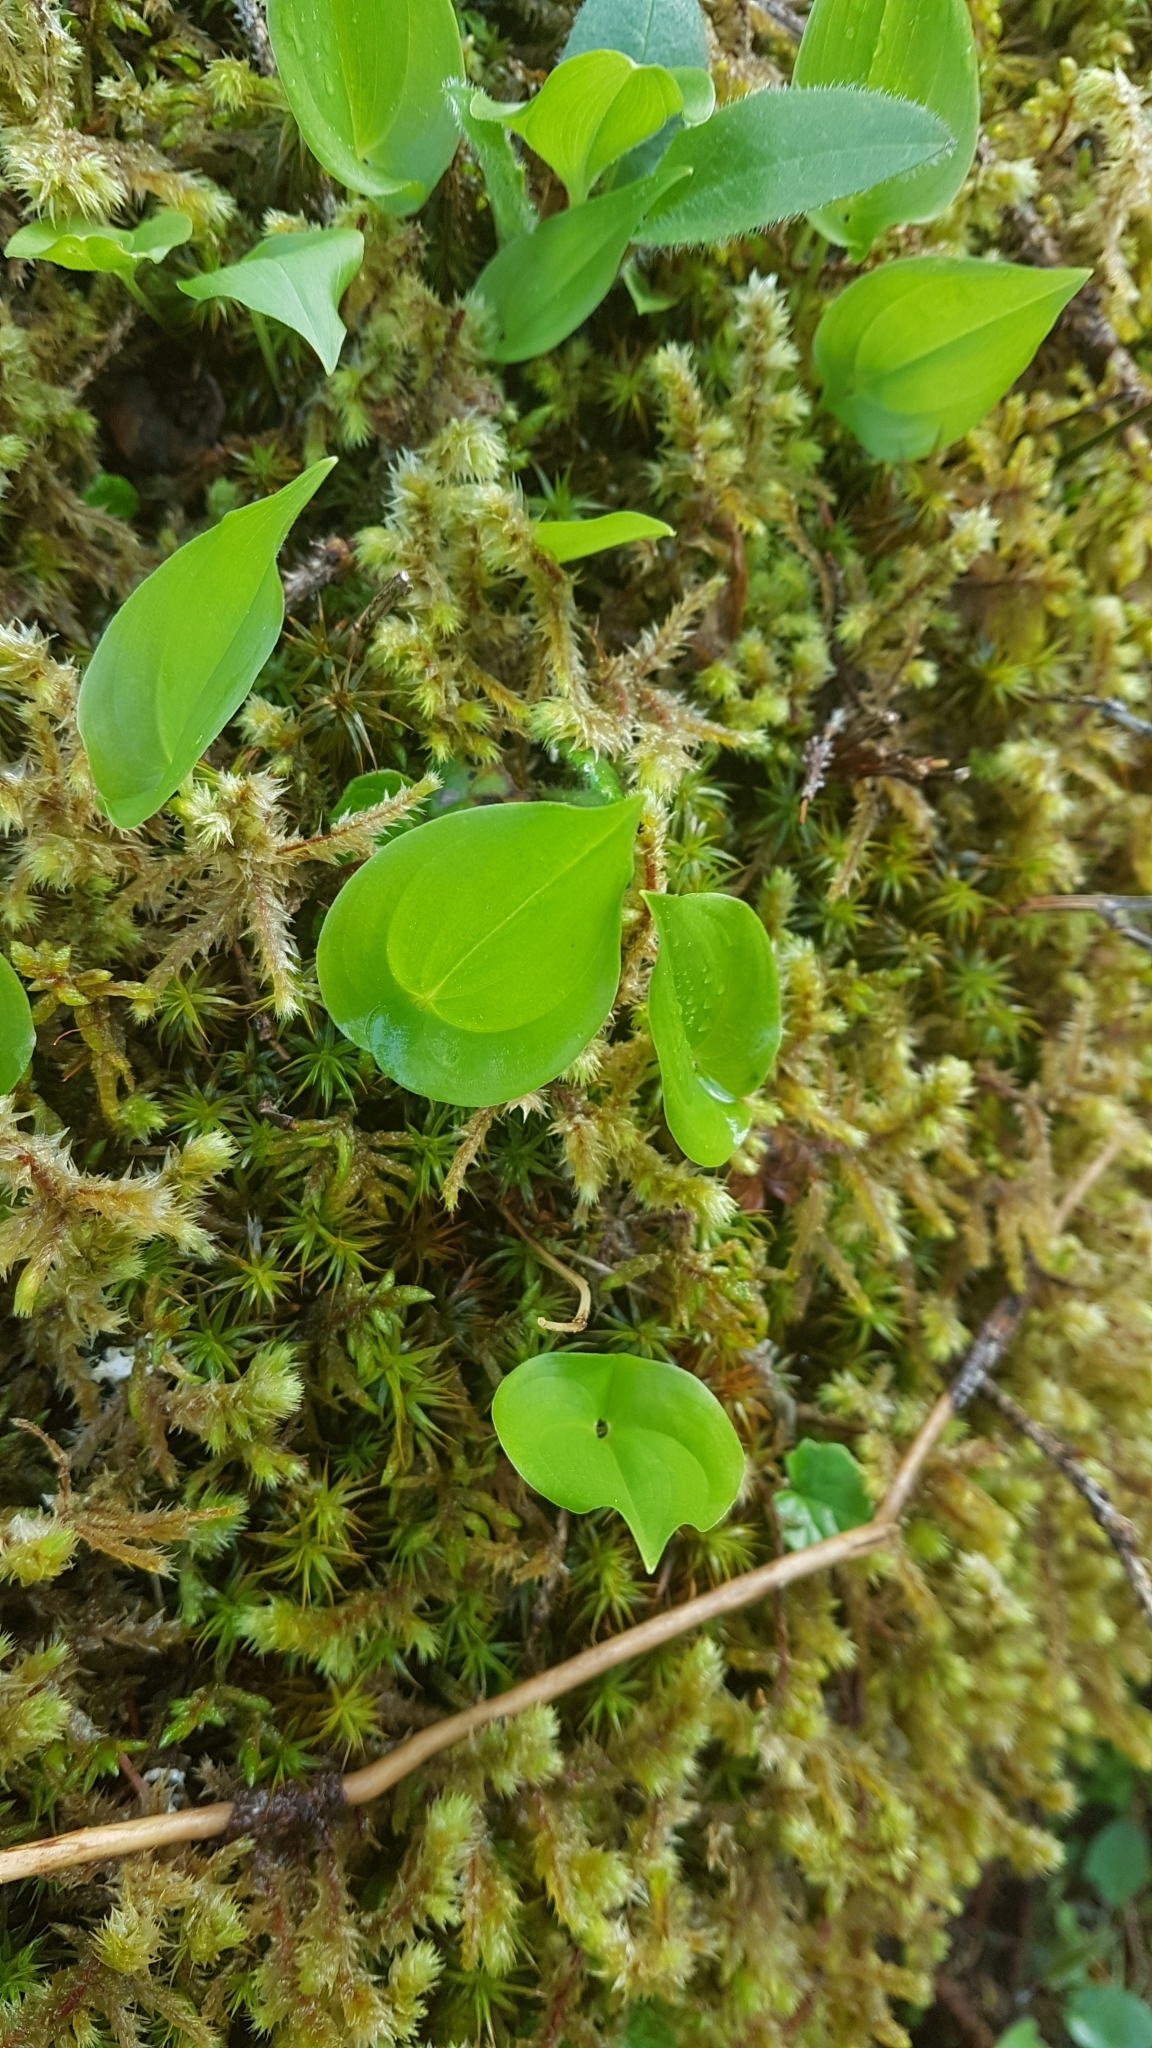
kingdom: Plantae
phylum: Tracheophyta
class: Liliopsida
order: Asparagales
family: Asparagaceae
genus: Maianthemum
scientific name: Maianthemum bifolium
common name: May lily
